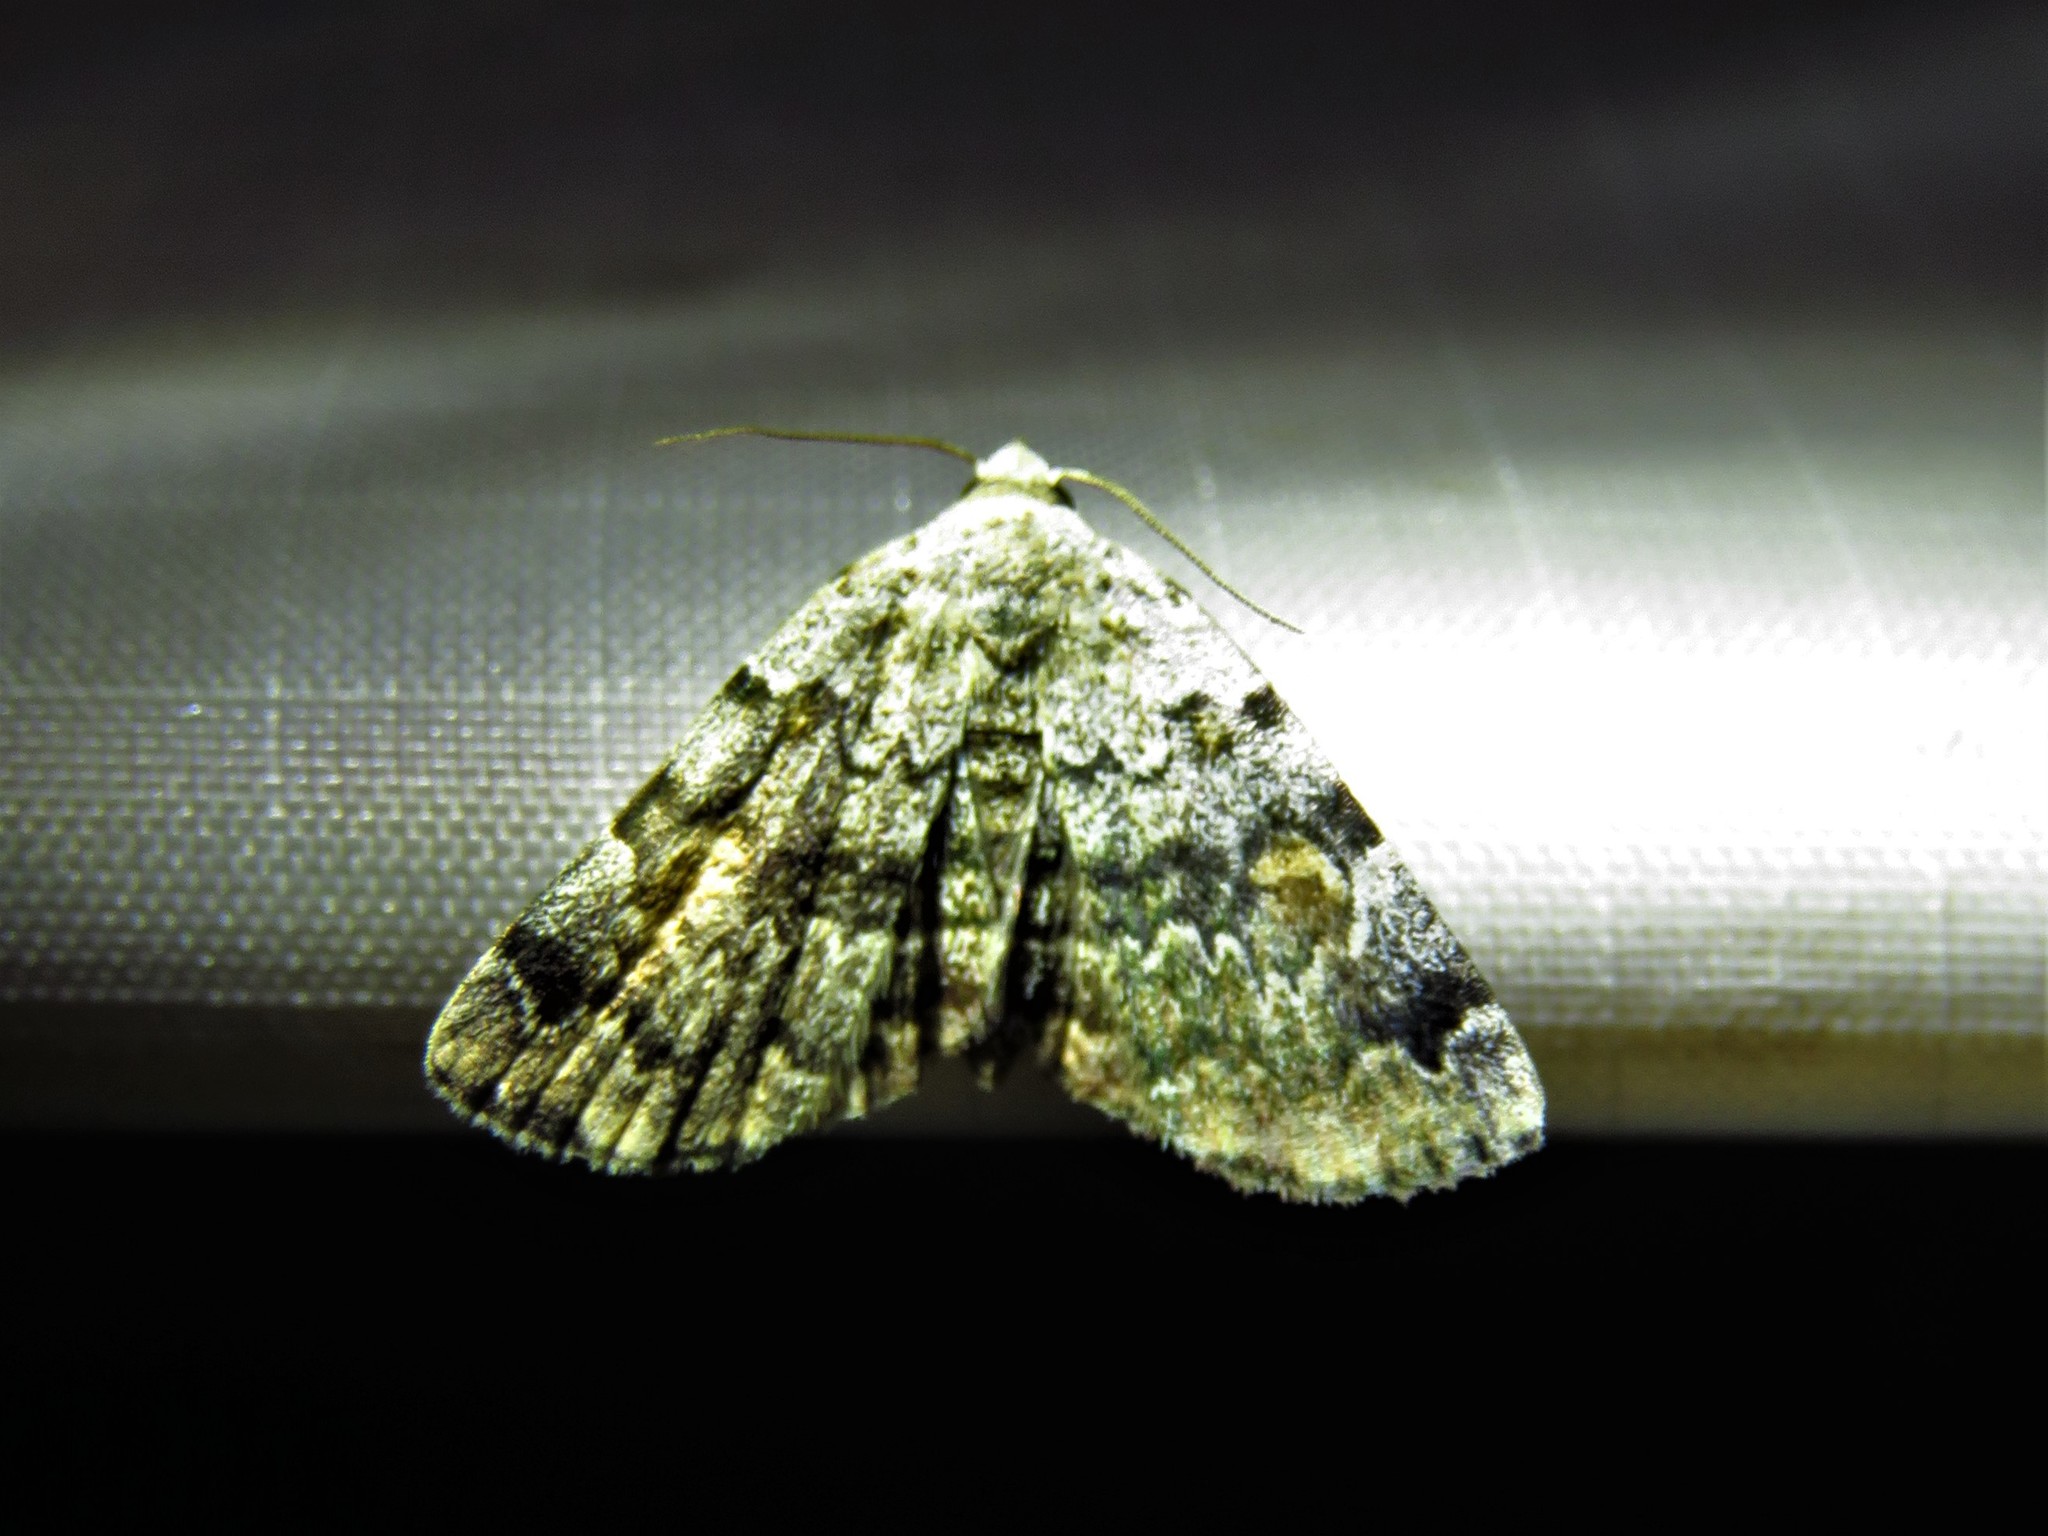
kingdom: Animalia
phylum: Arthropoda
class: Insecta
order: Lepidoptera
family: Erebidae
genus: Idia
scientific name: Idia americalis
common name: American idia moth
